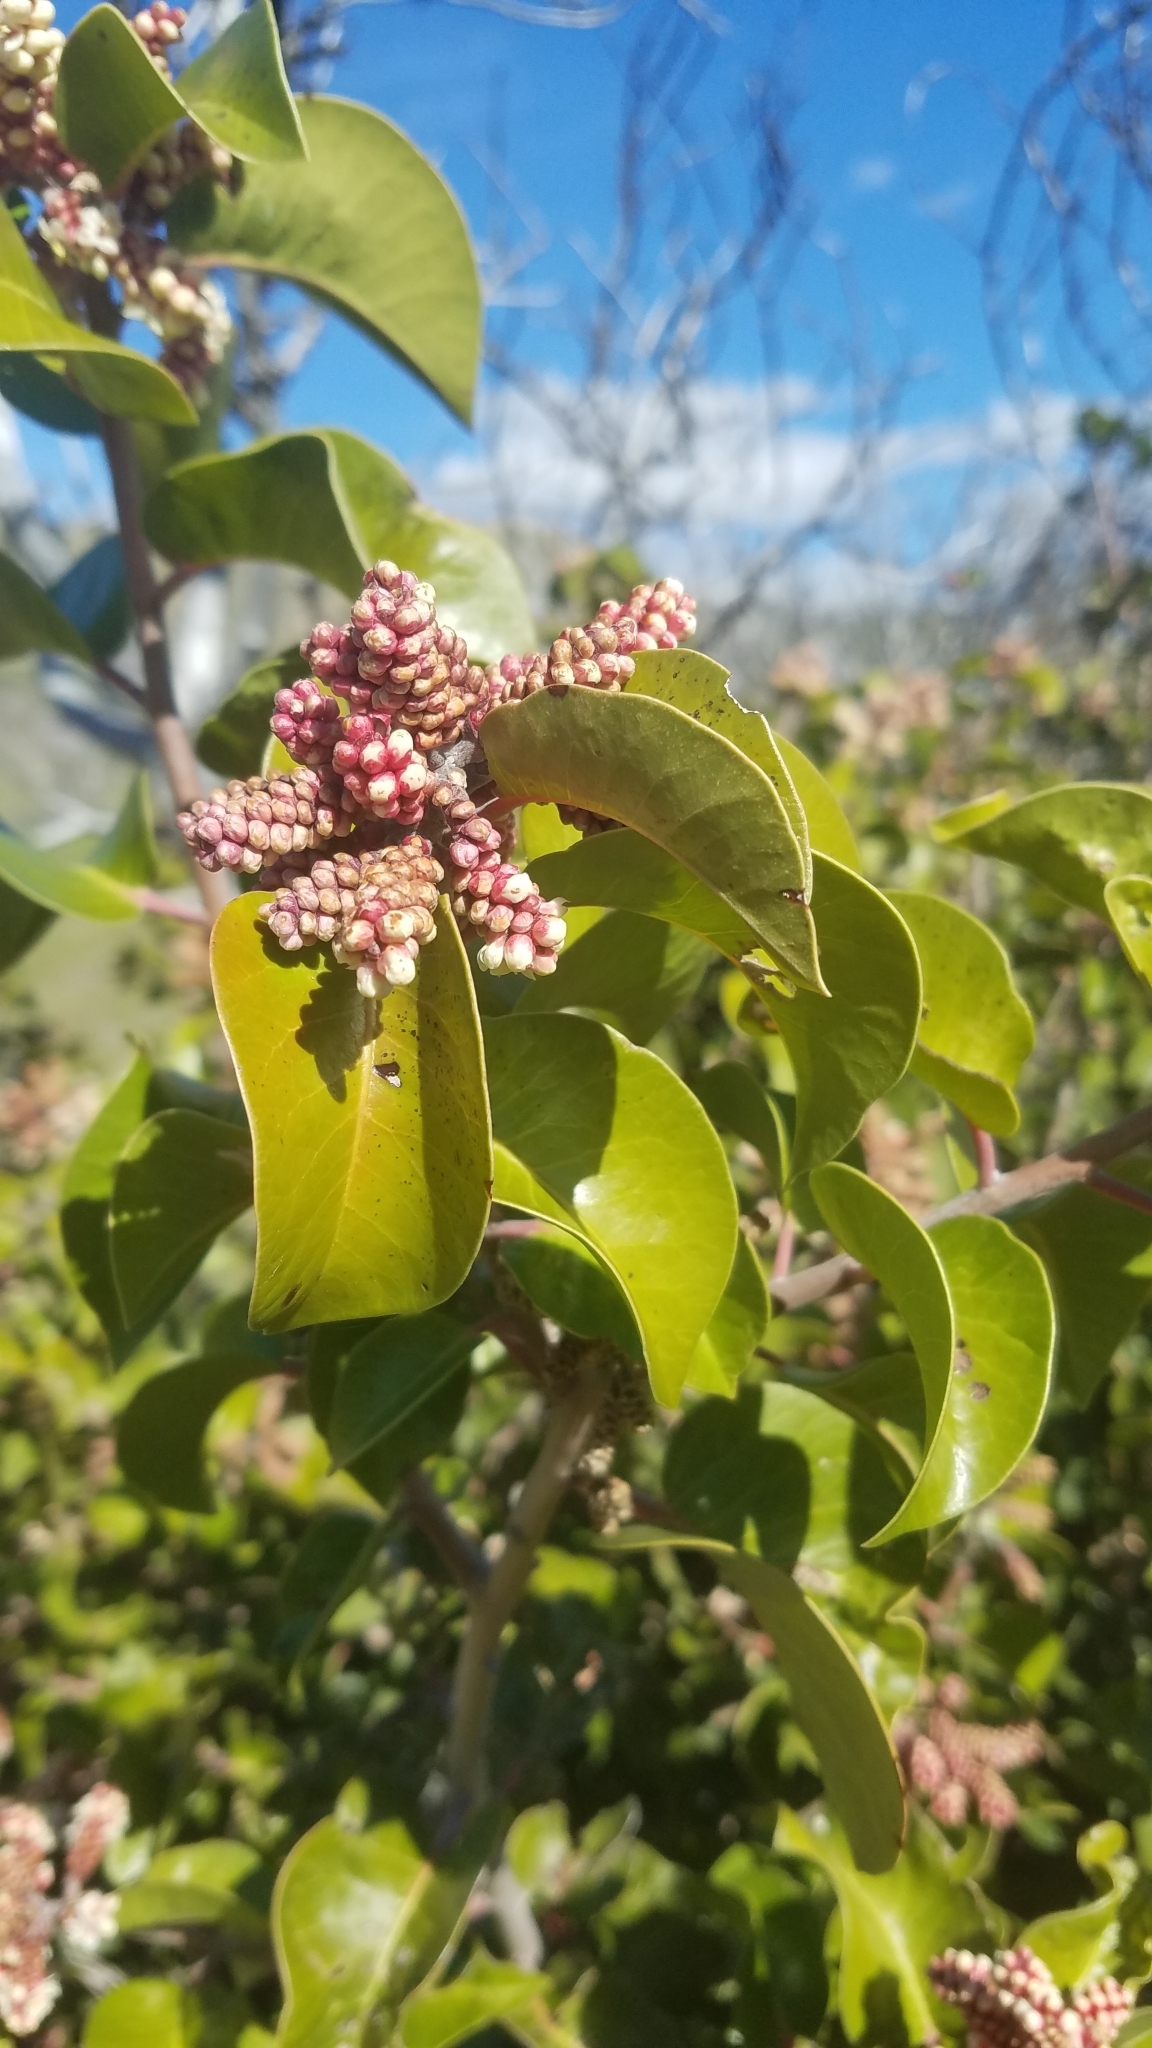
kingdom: Plantae
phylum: Tracheophyta
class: Magnoliopsida
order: Sapindales
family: Anacardiaceae
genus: Rhus
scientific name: Rhus ovata
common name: Sugar sumac
